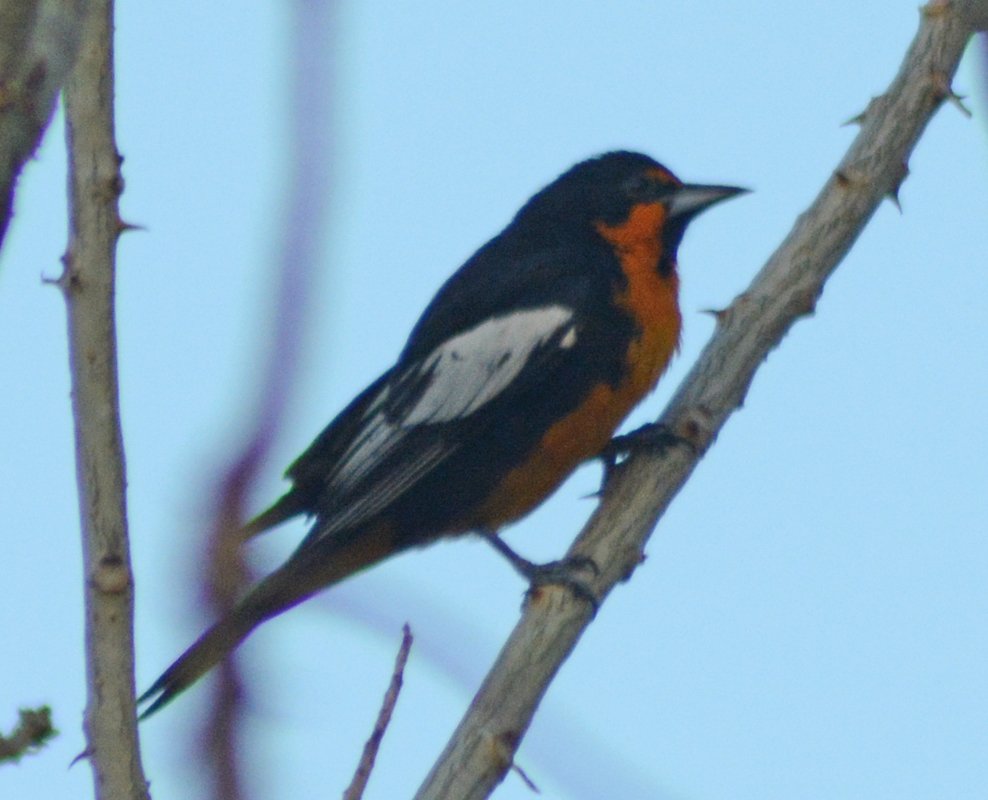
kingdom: Animalia
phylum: Chordata
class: Aves
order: Passeriformes
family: Icteridae
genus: Icterus
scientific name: Icterus abeillei
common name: Black-backed oriole
